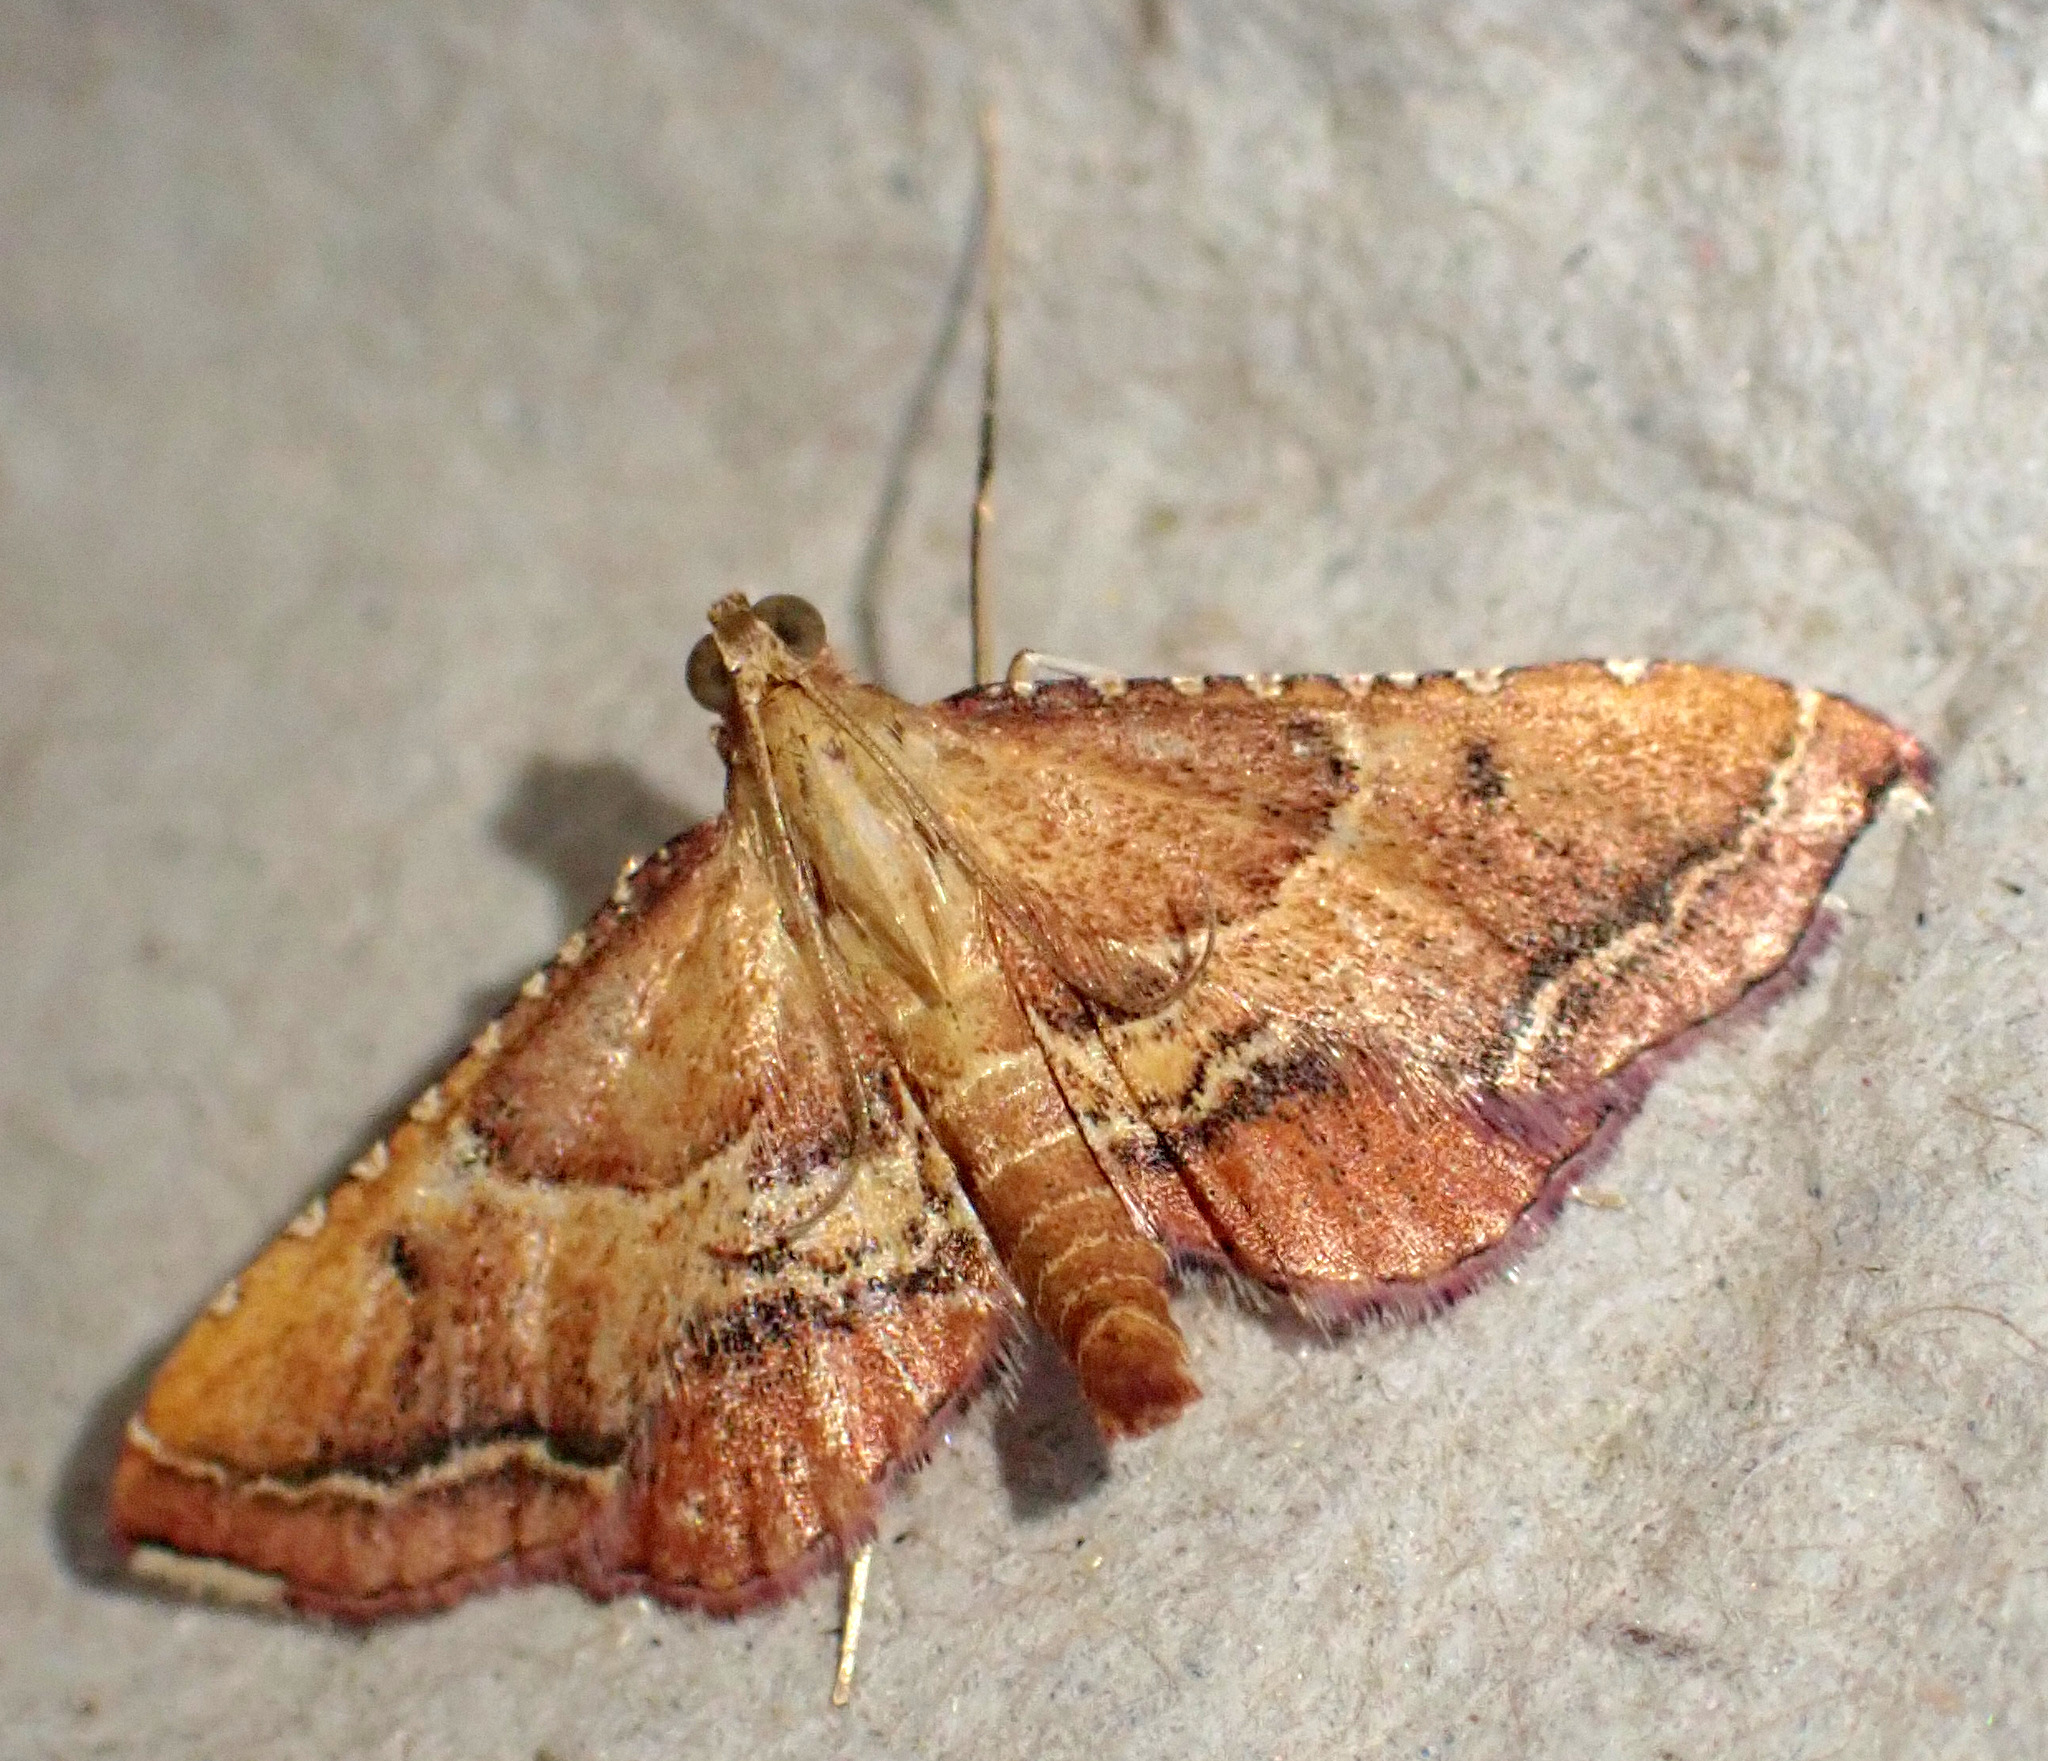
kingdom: Animalia
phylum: Arthropoda
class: Insecta
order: Lepidoptera
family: Pyralidae
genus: Endotricha
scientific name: Endotricha flammealis
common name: Rosy tabby
